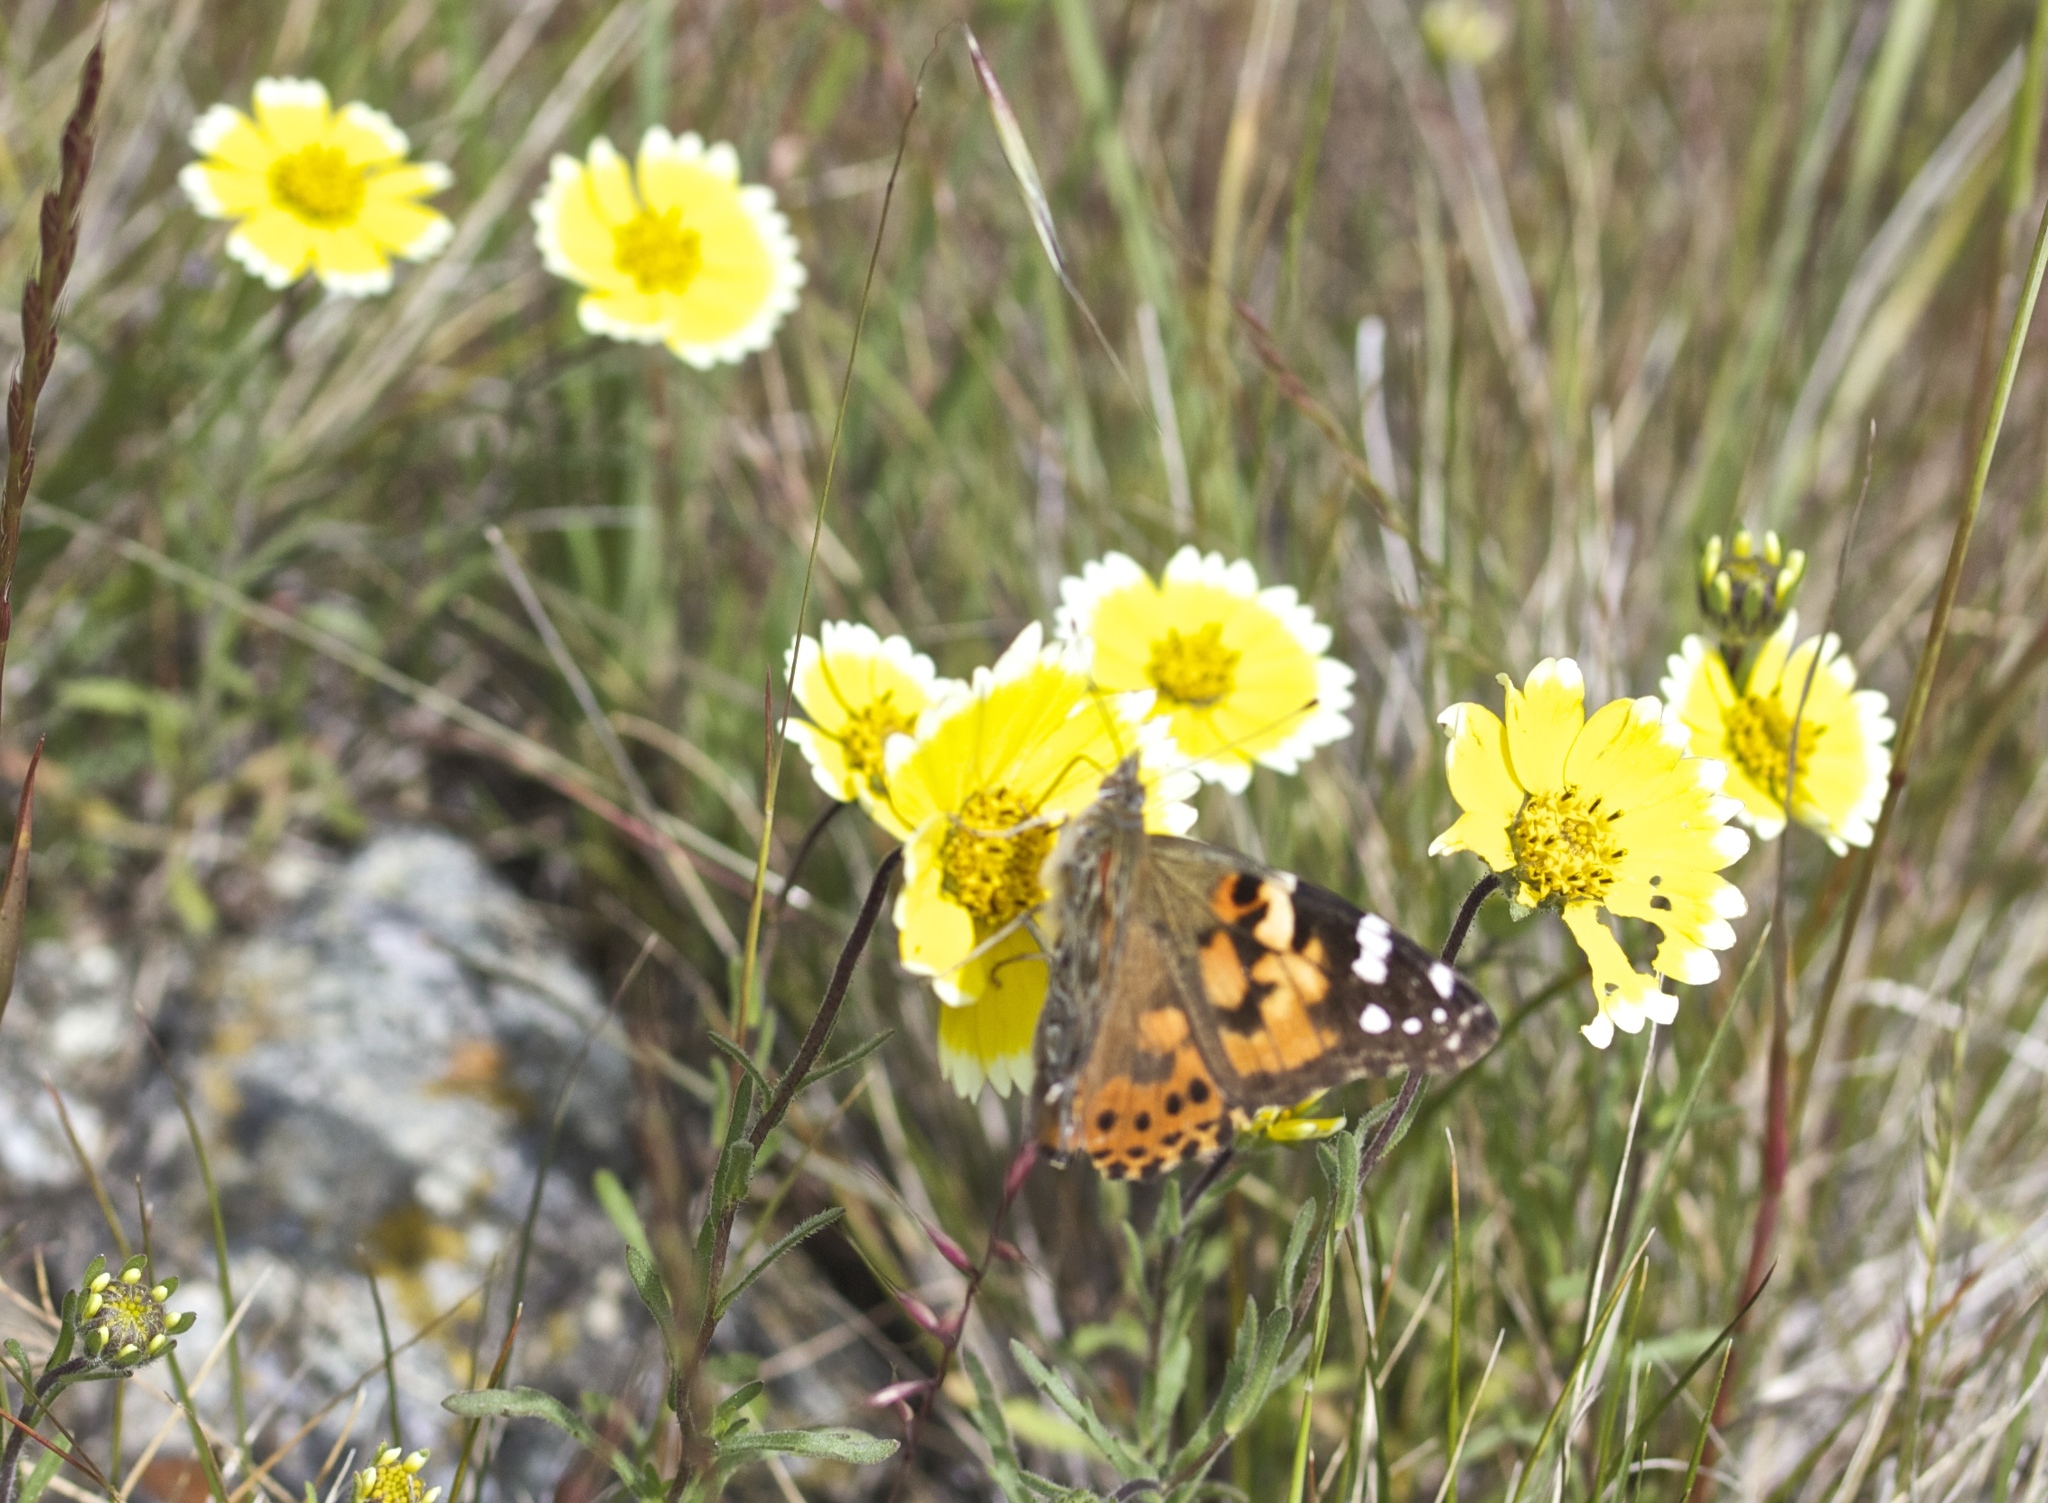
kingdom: Animalia
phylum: Arthropoda
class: Insecta
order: Lepidoptera
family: Nymphalidae
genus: Vanessa
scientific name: Vanessa cardui
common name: Painted lady
